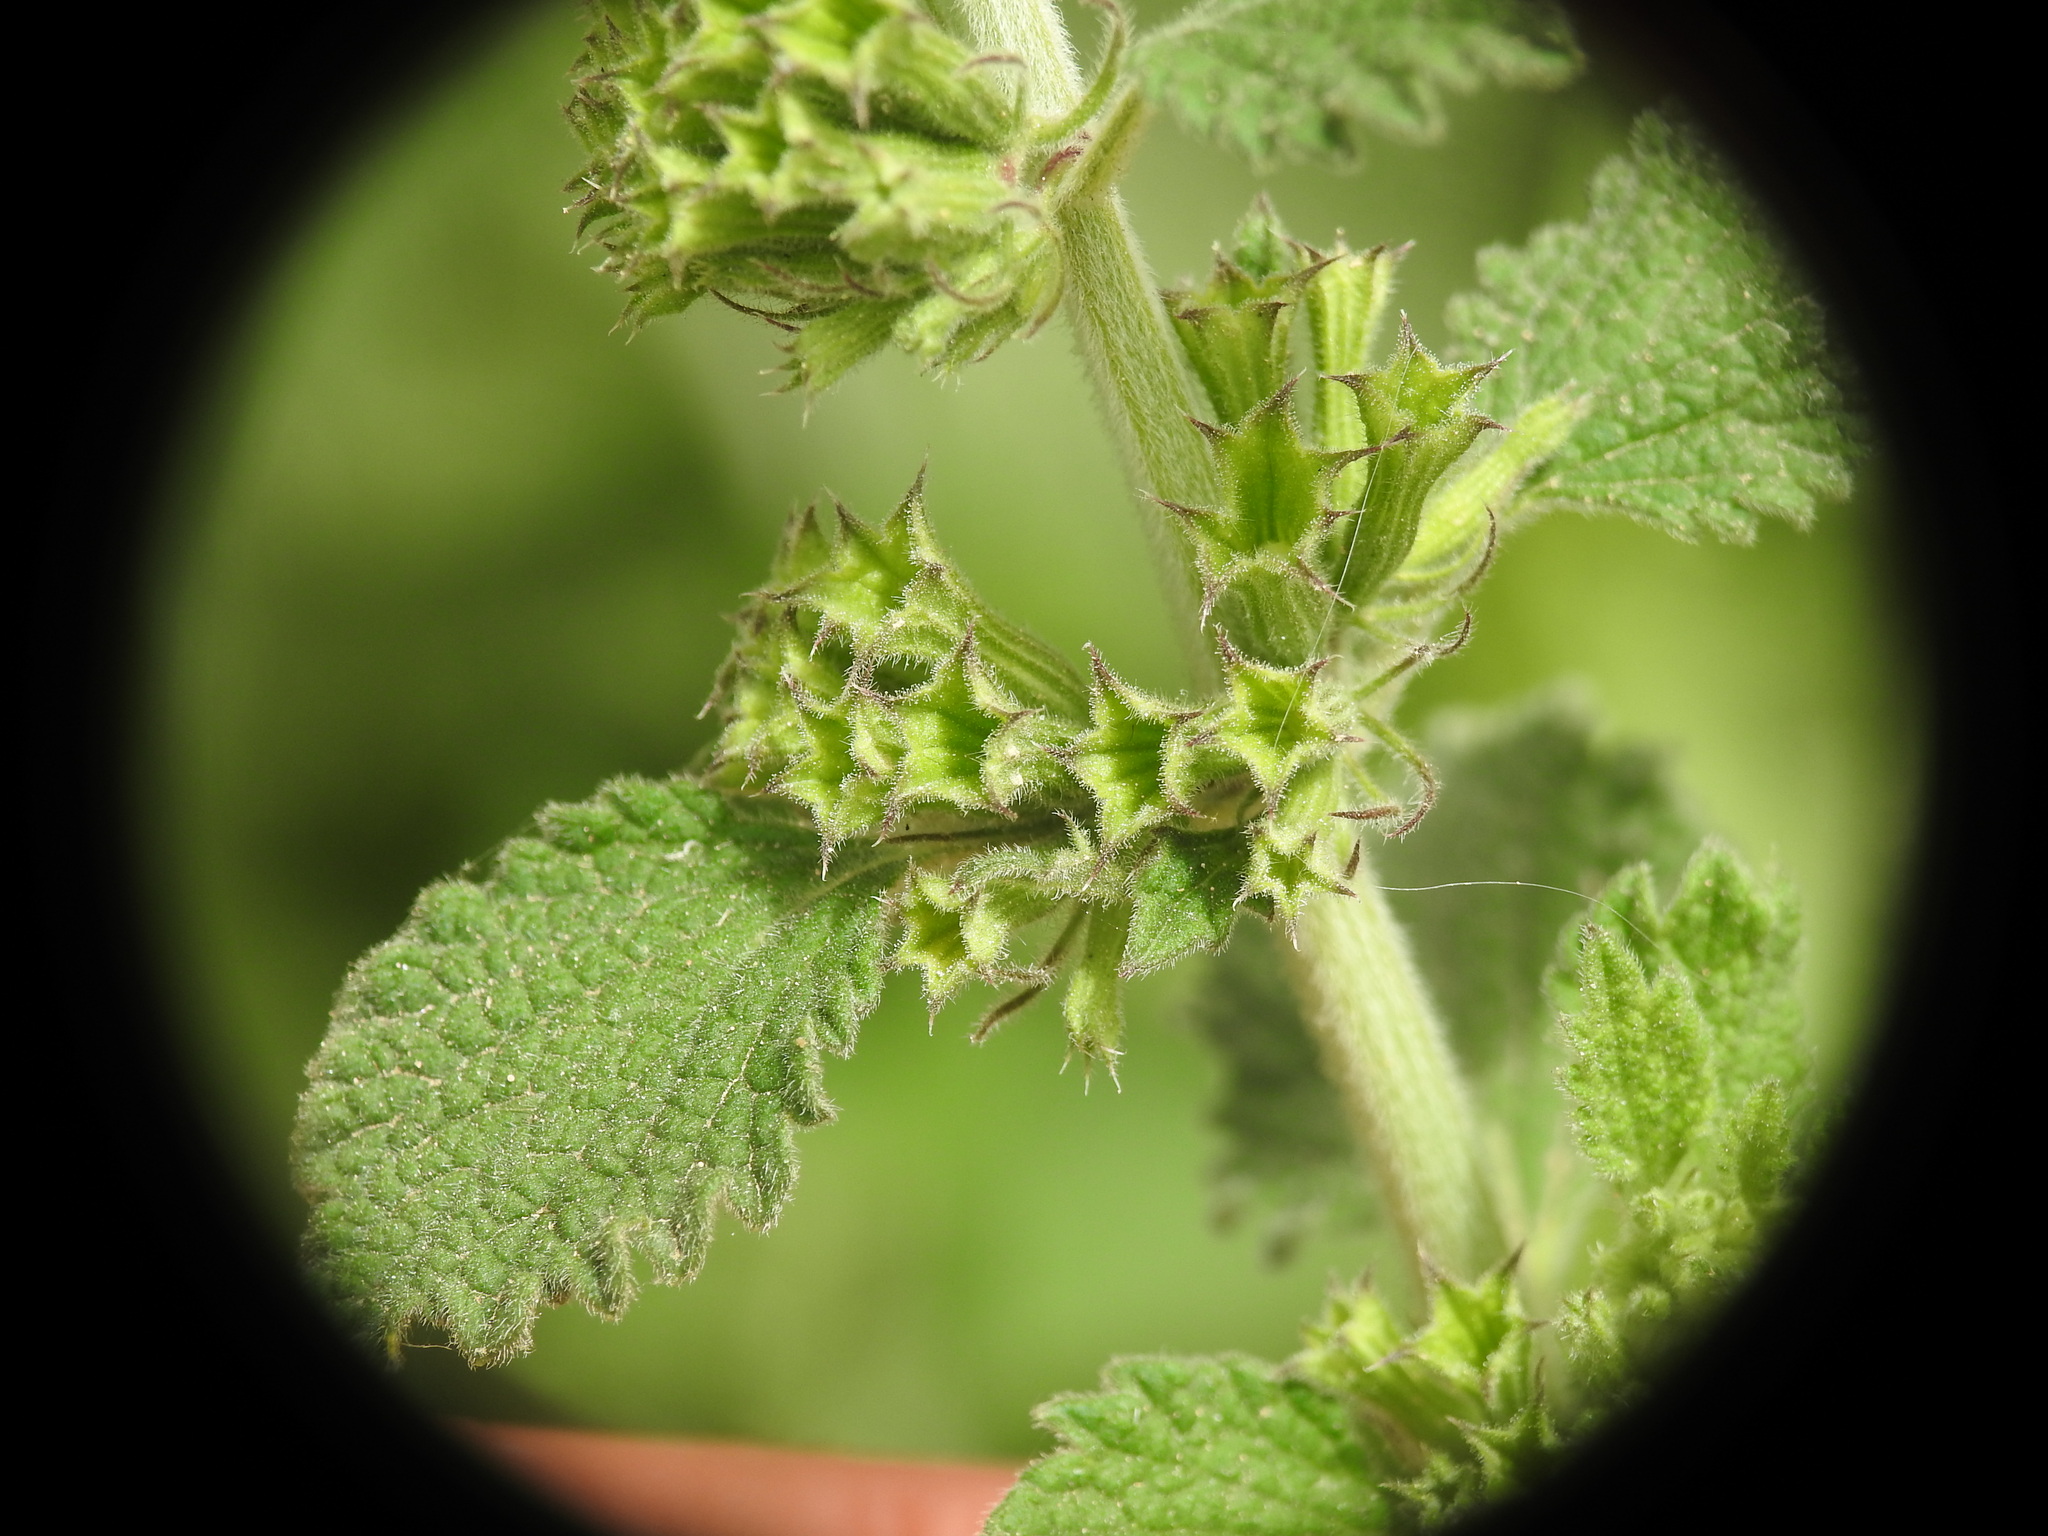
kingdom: Plantae
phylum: Tracheophyta
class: Magnoliopsida
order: Lamiales
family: Lamiaceae
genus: Ballota
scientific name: Ballota nigra
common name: Black horehound
